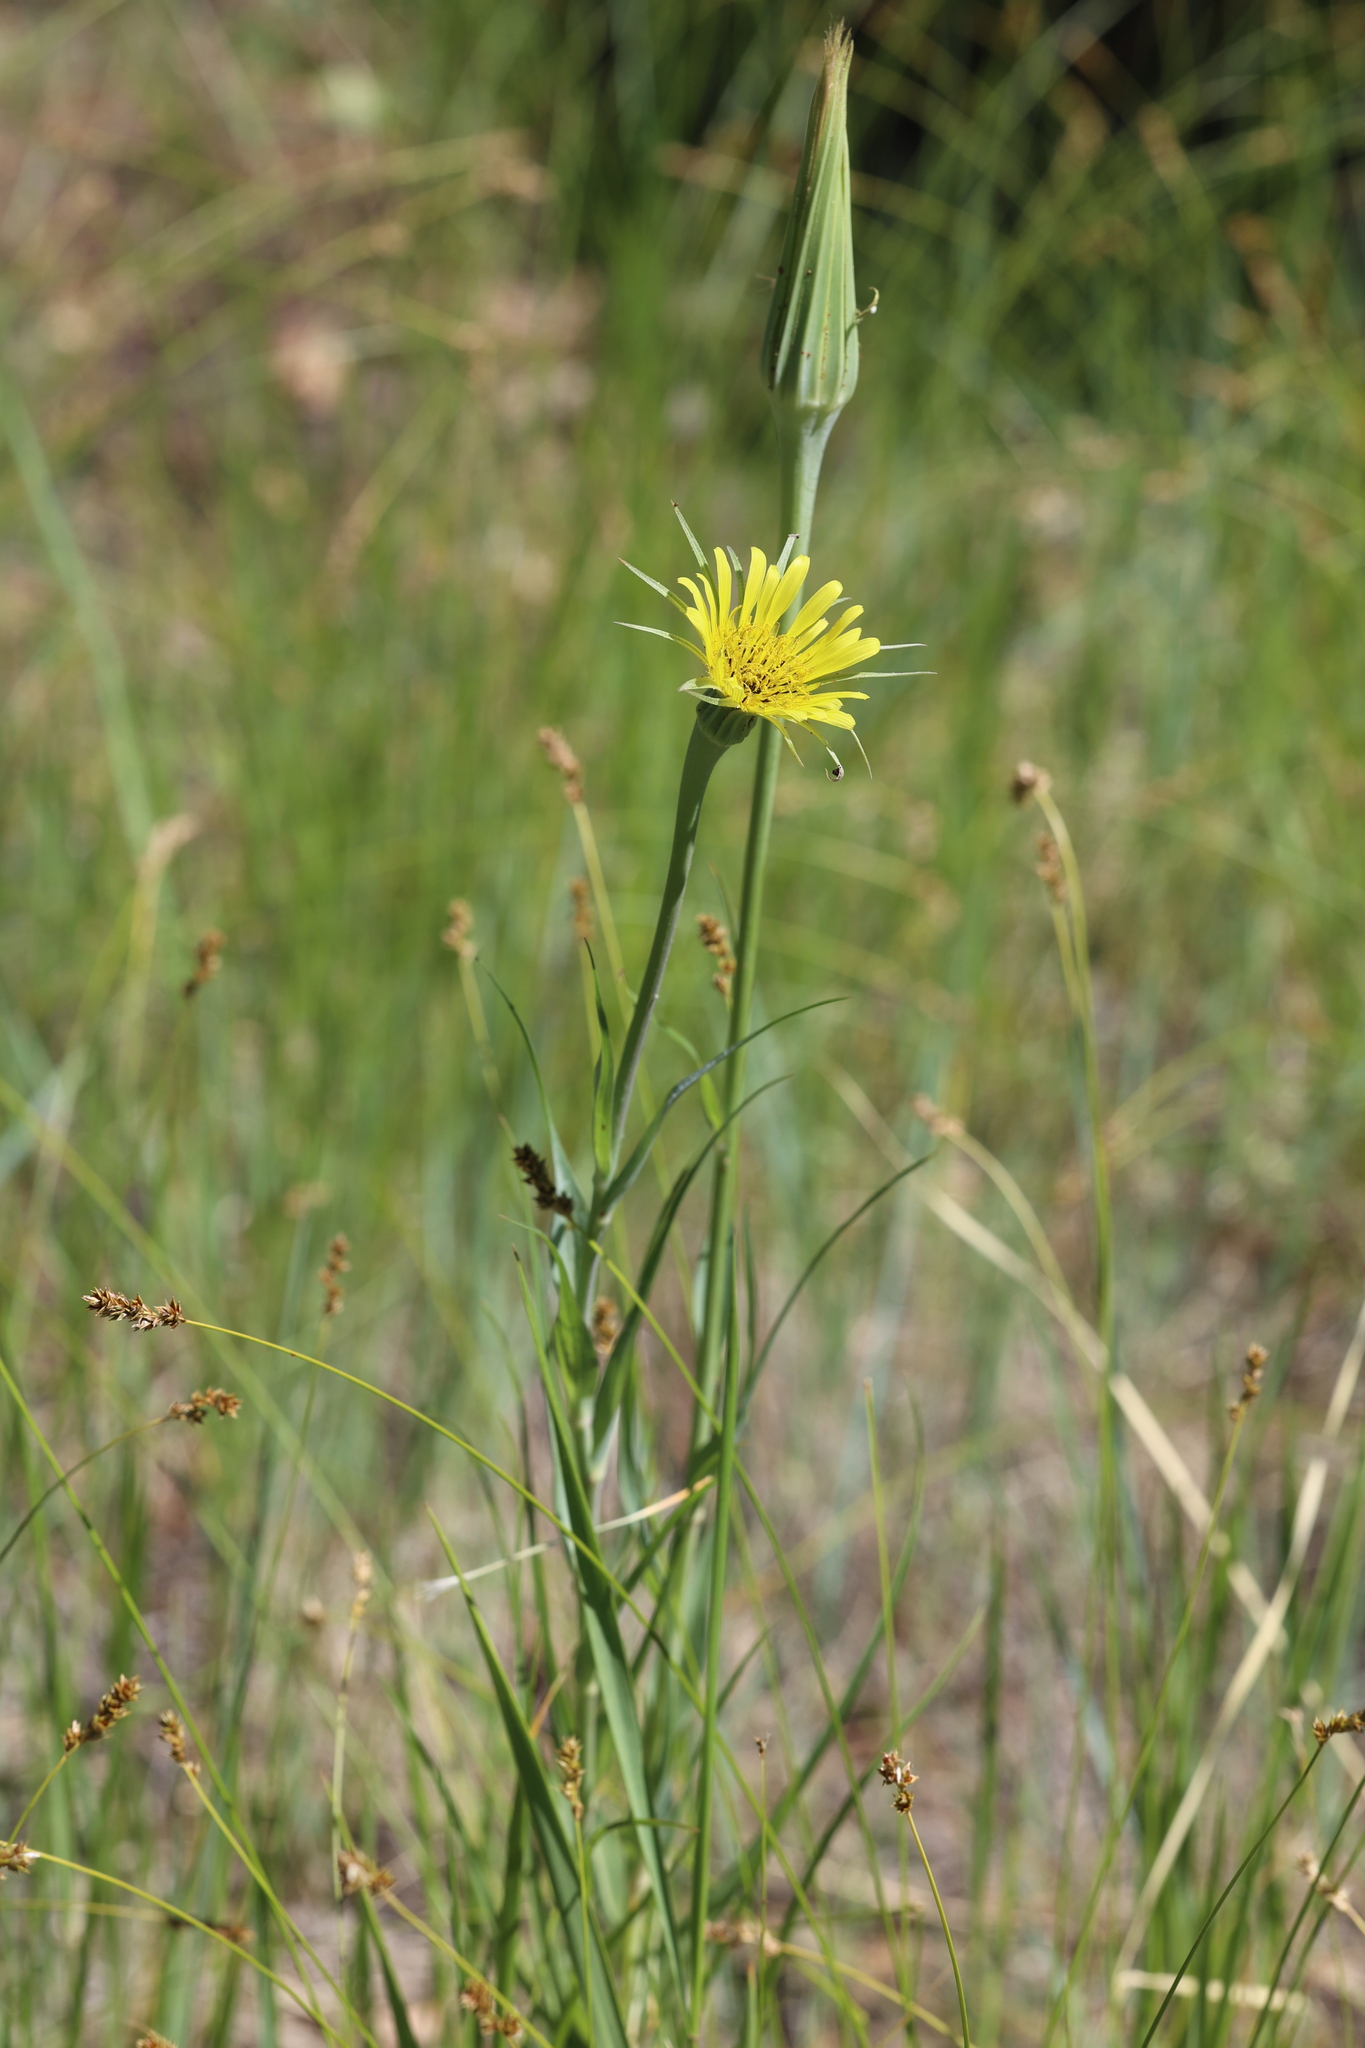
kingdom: Plantae
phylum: Tracheophyta
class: Magnoliopsida
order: Asterales
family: Asteraceae
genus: Tragopogon
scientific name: Tragopogon dubius
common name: Yellow salsify
